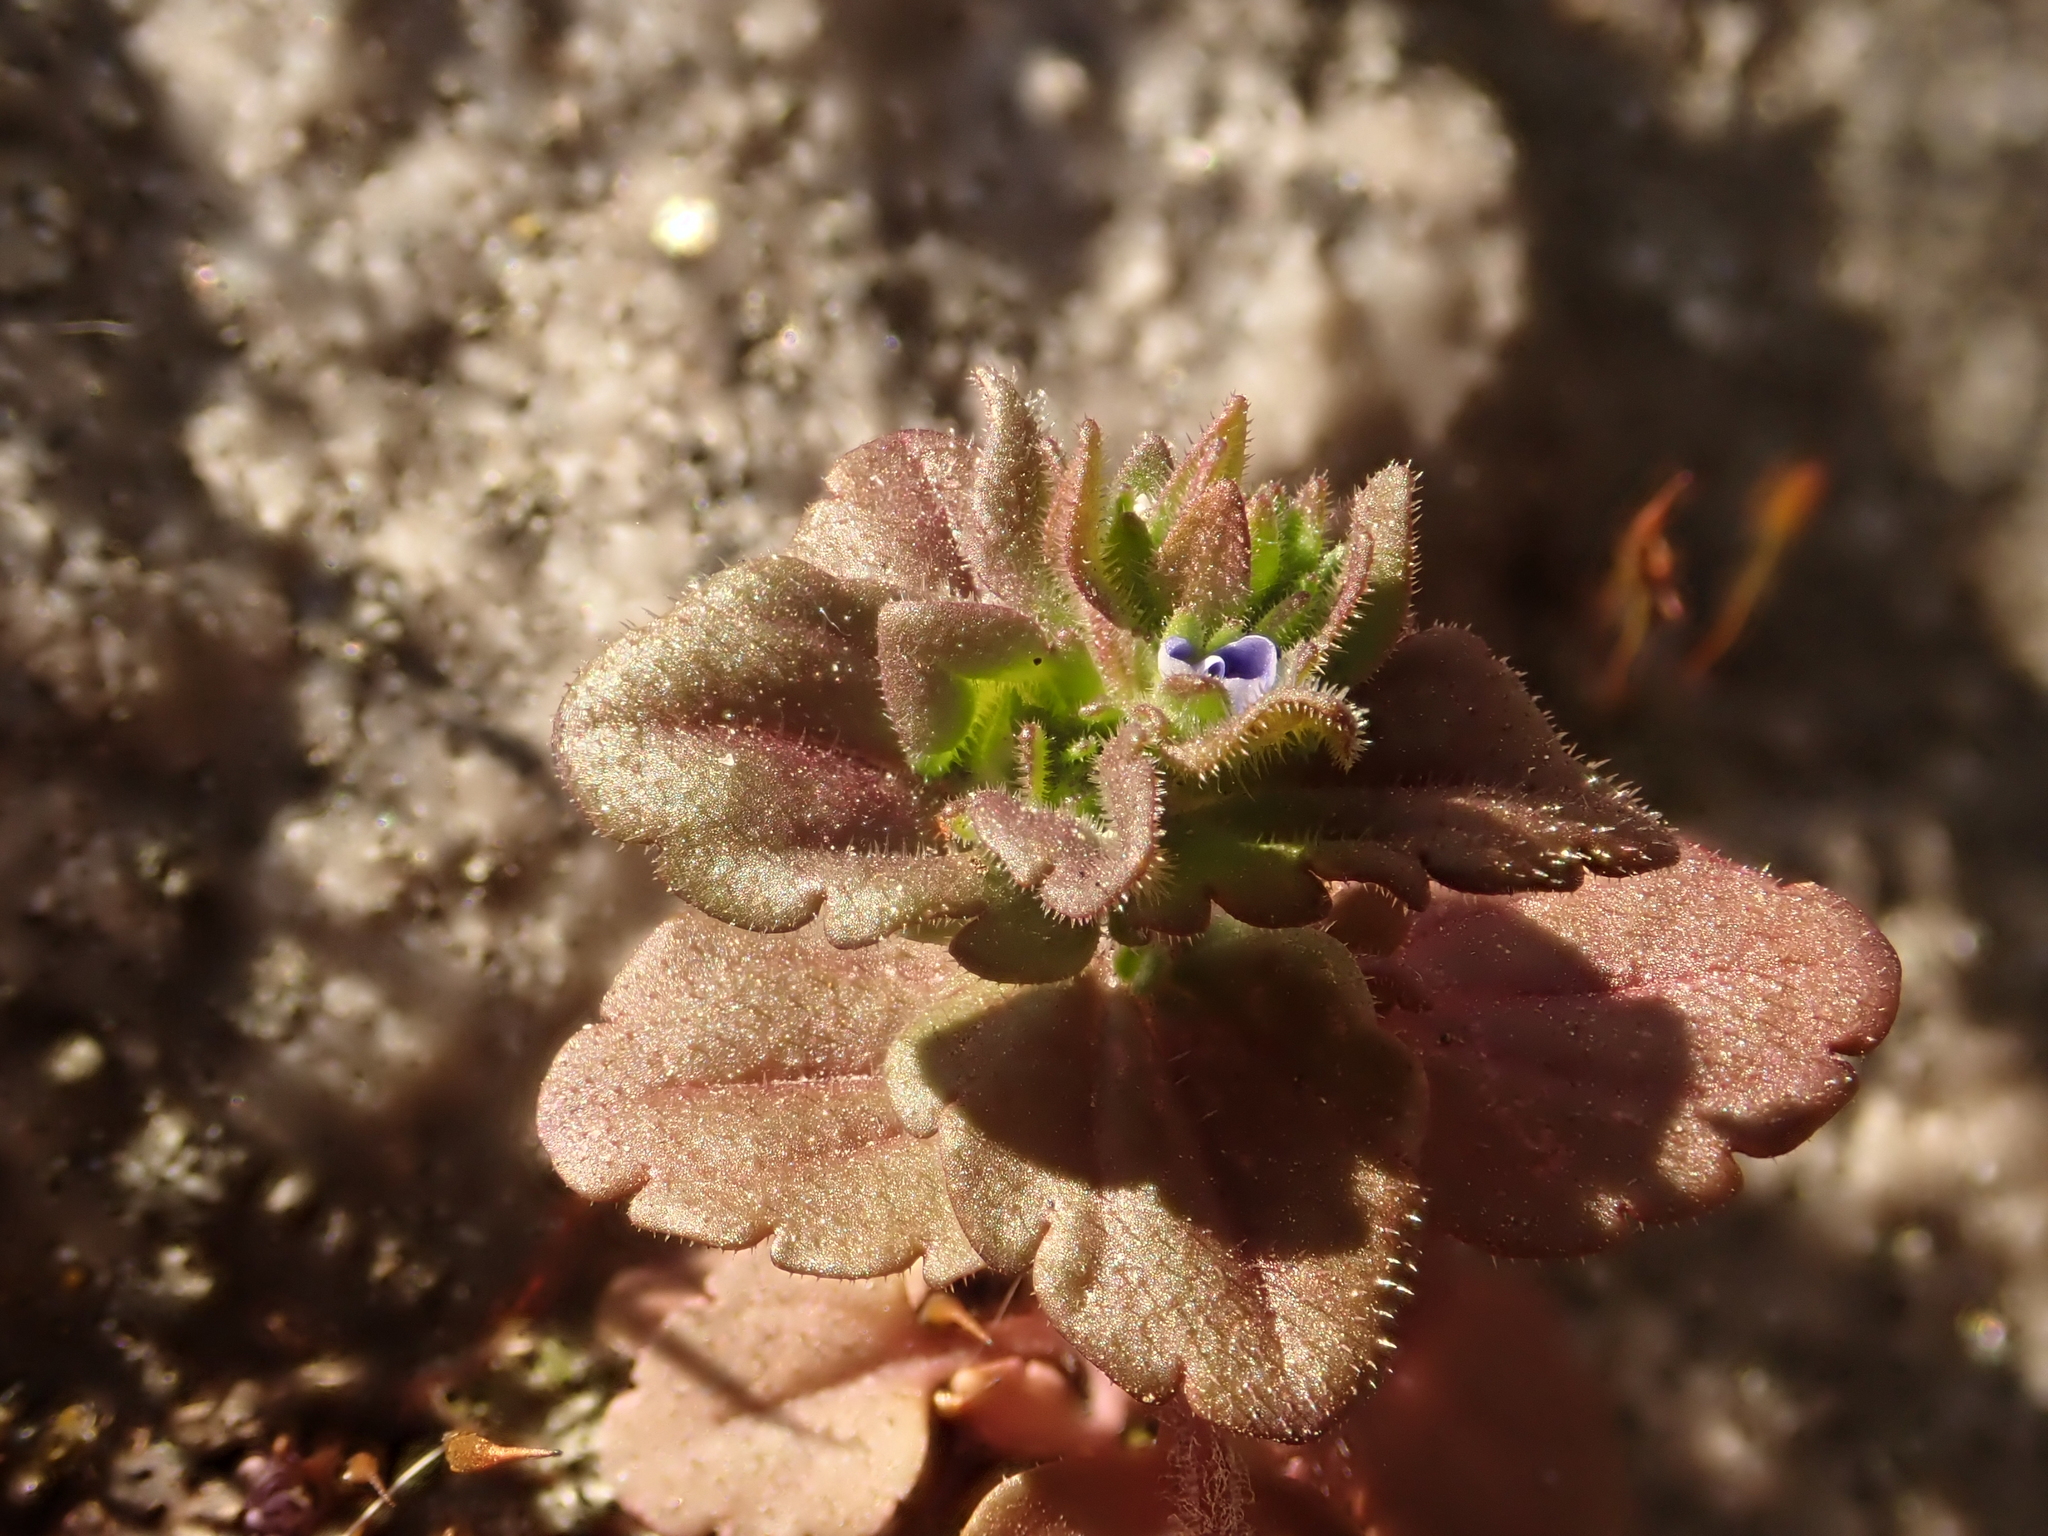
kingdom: Plantae
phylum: Tracheophyta
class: Magnoliopsida
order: Lamiales
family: Plantaginaceae
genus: Veronica
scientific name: Veronica arvensis
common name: Corn speedwell
